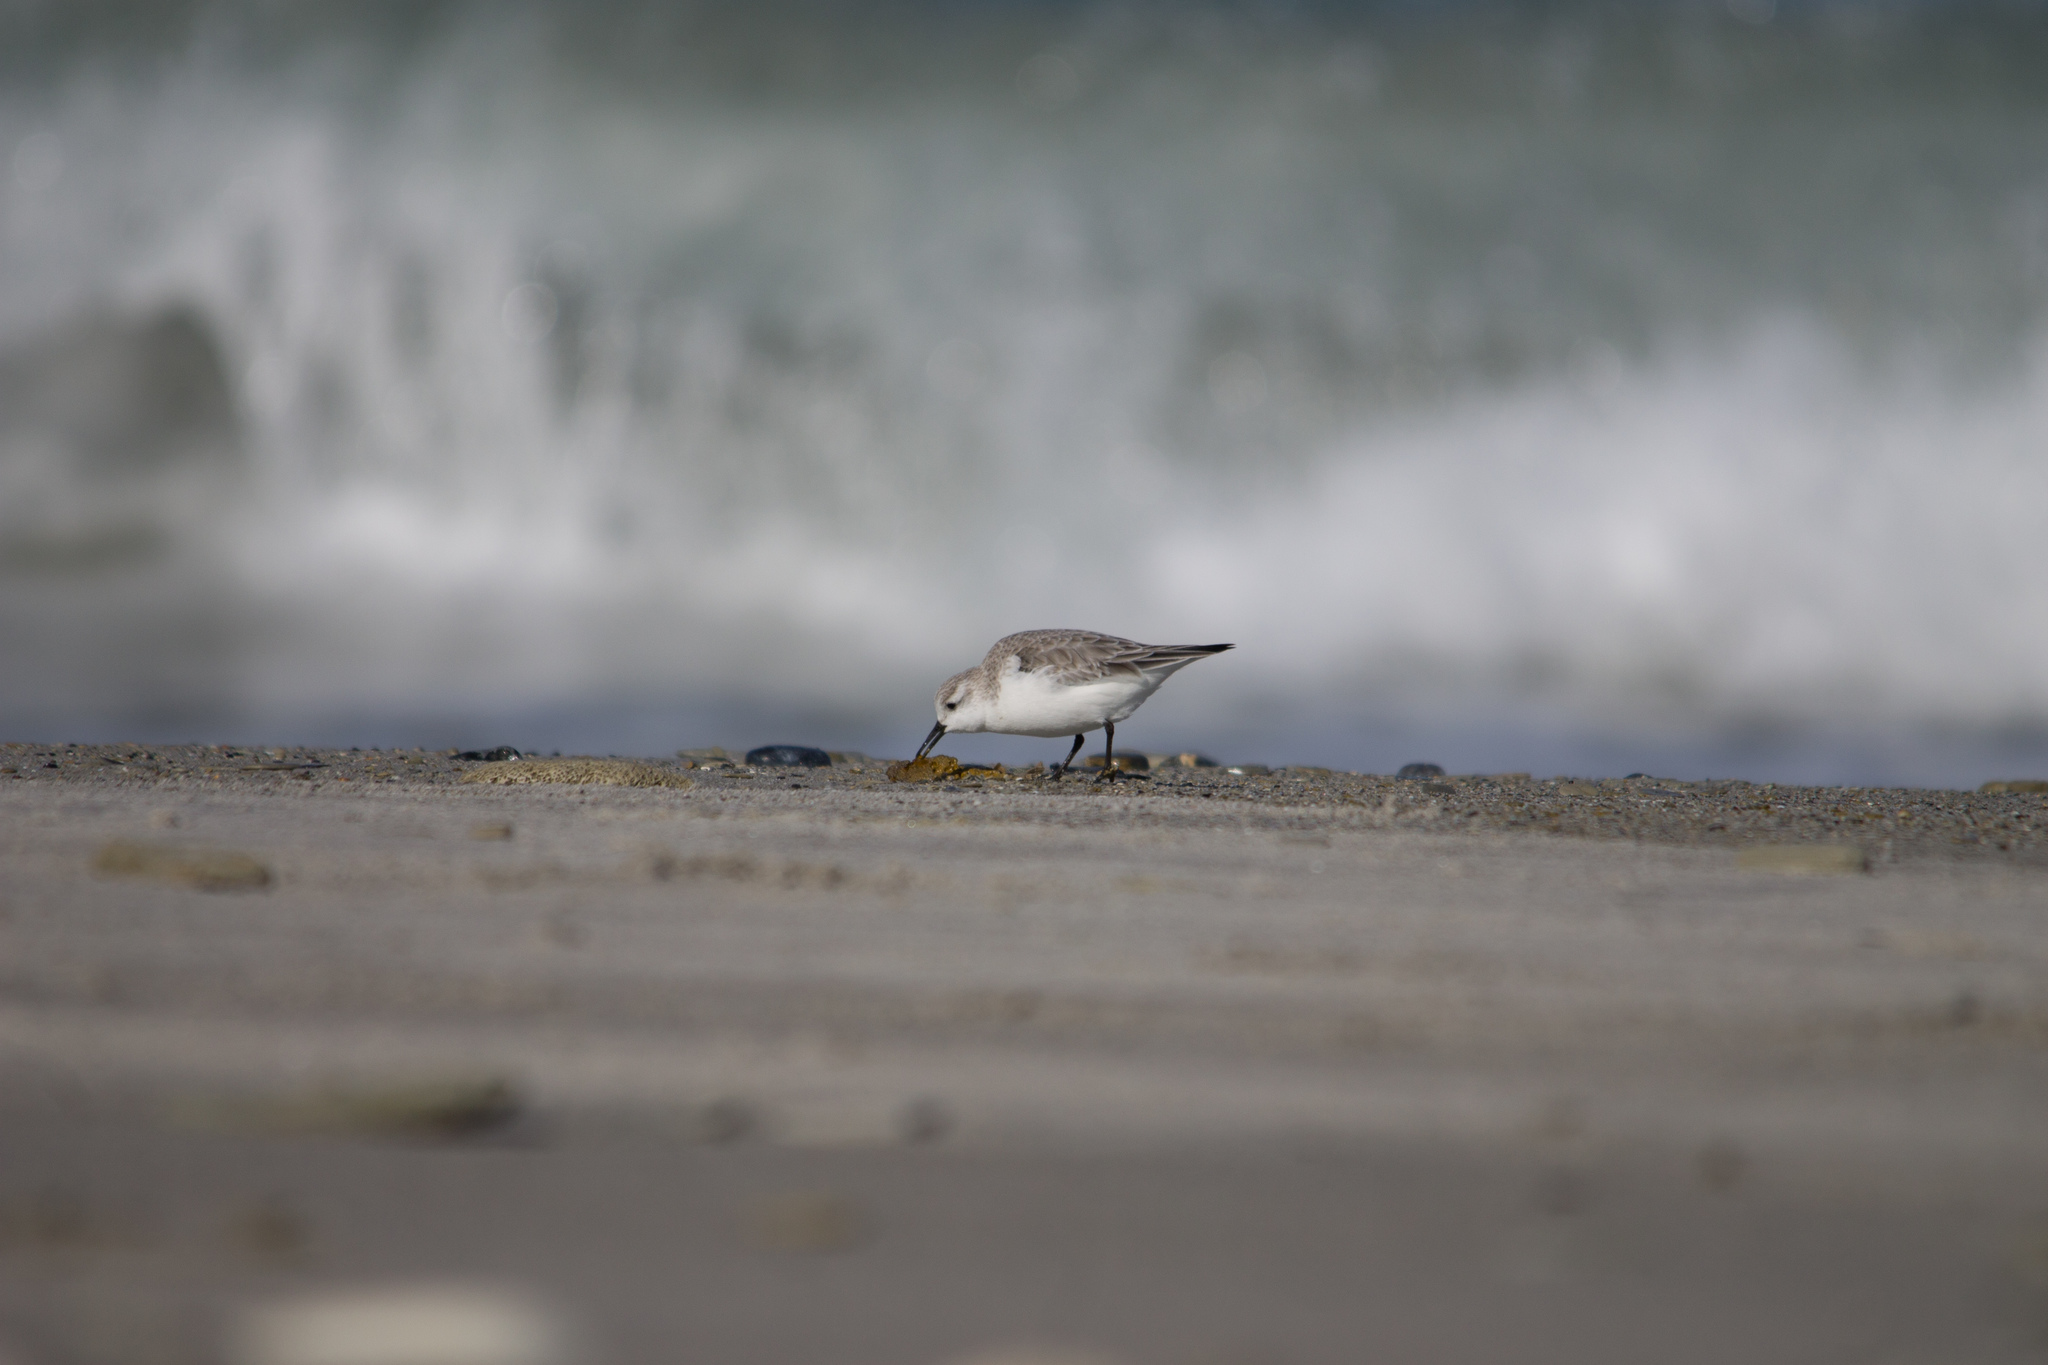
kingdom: Animalia
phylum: Chordata
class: Aves
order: Charadriiformes
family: Scolopacidae
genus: Calidris
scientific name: Calidris alba
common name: Sanderling
